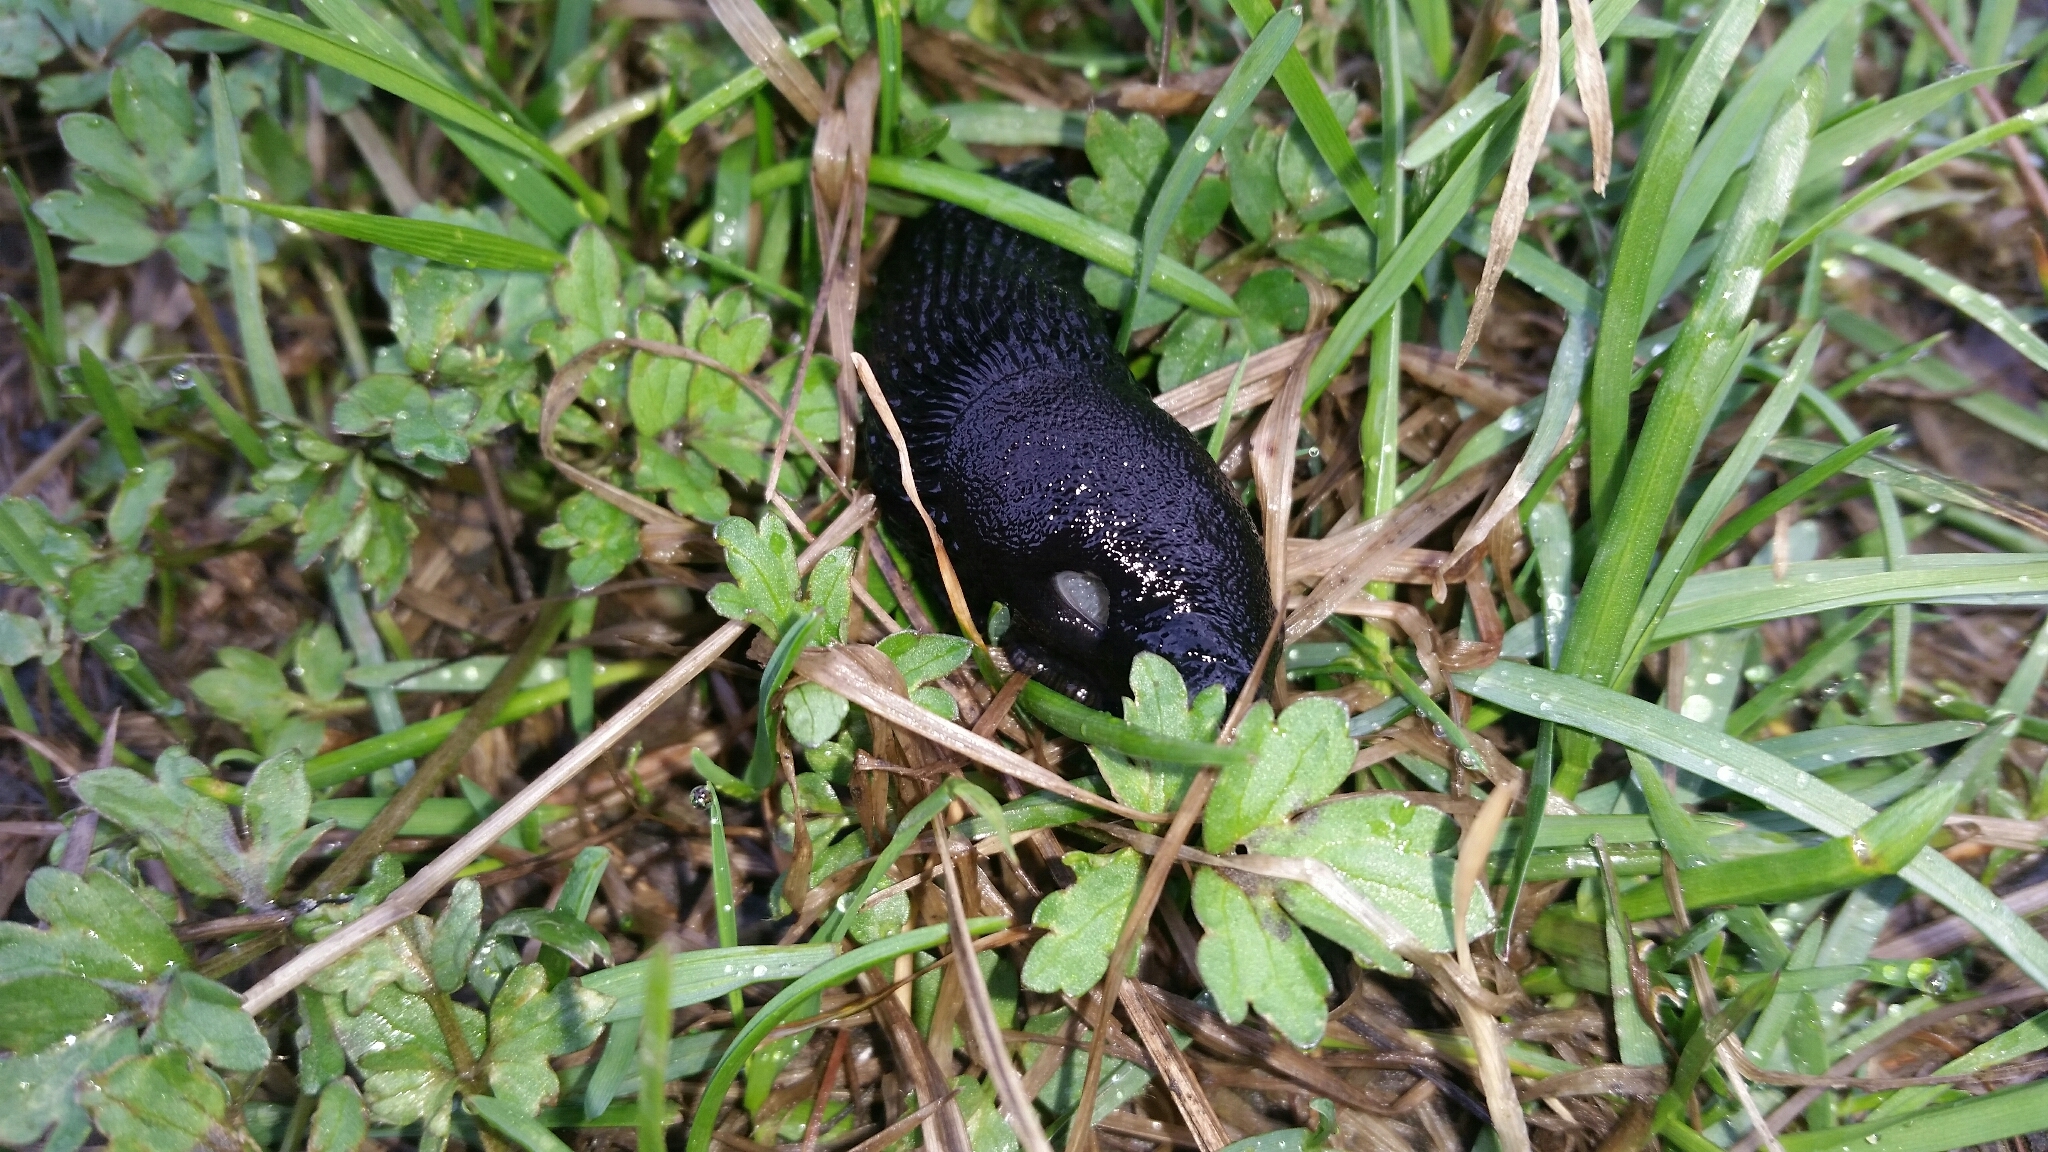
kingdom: Animalia
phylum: Mollusca
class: Gastropoda
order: Stylommatophora
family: Arionidae
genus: Arion
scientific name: Arion ater
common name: Black arion
